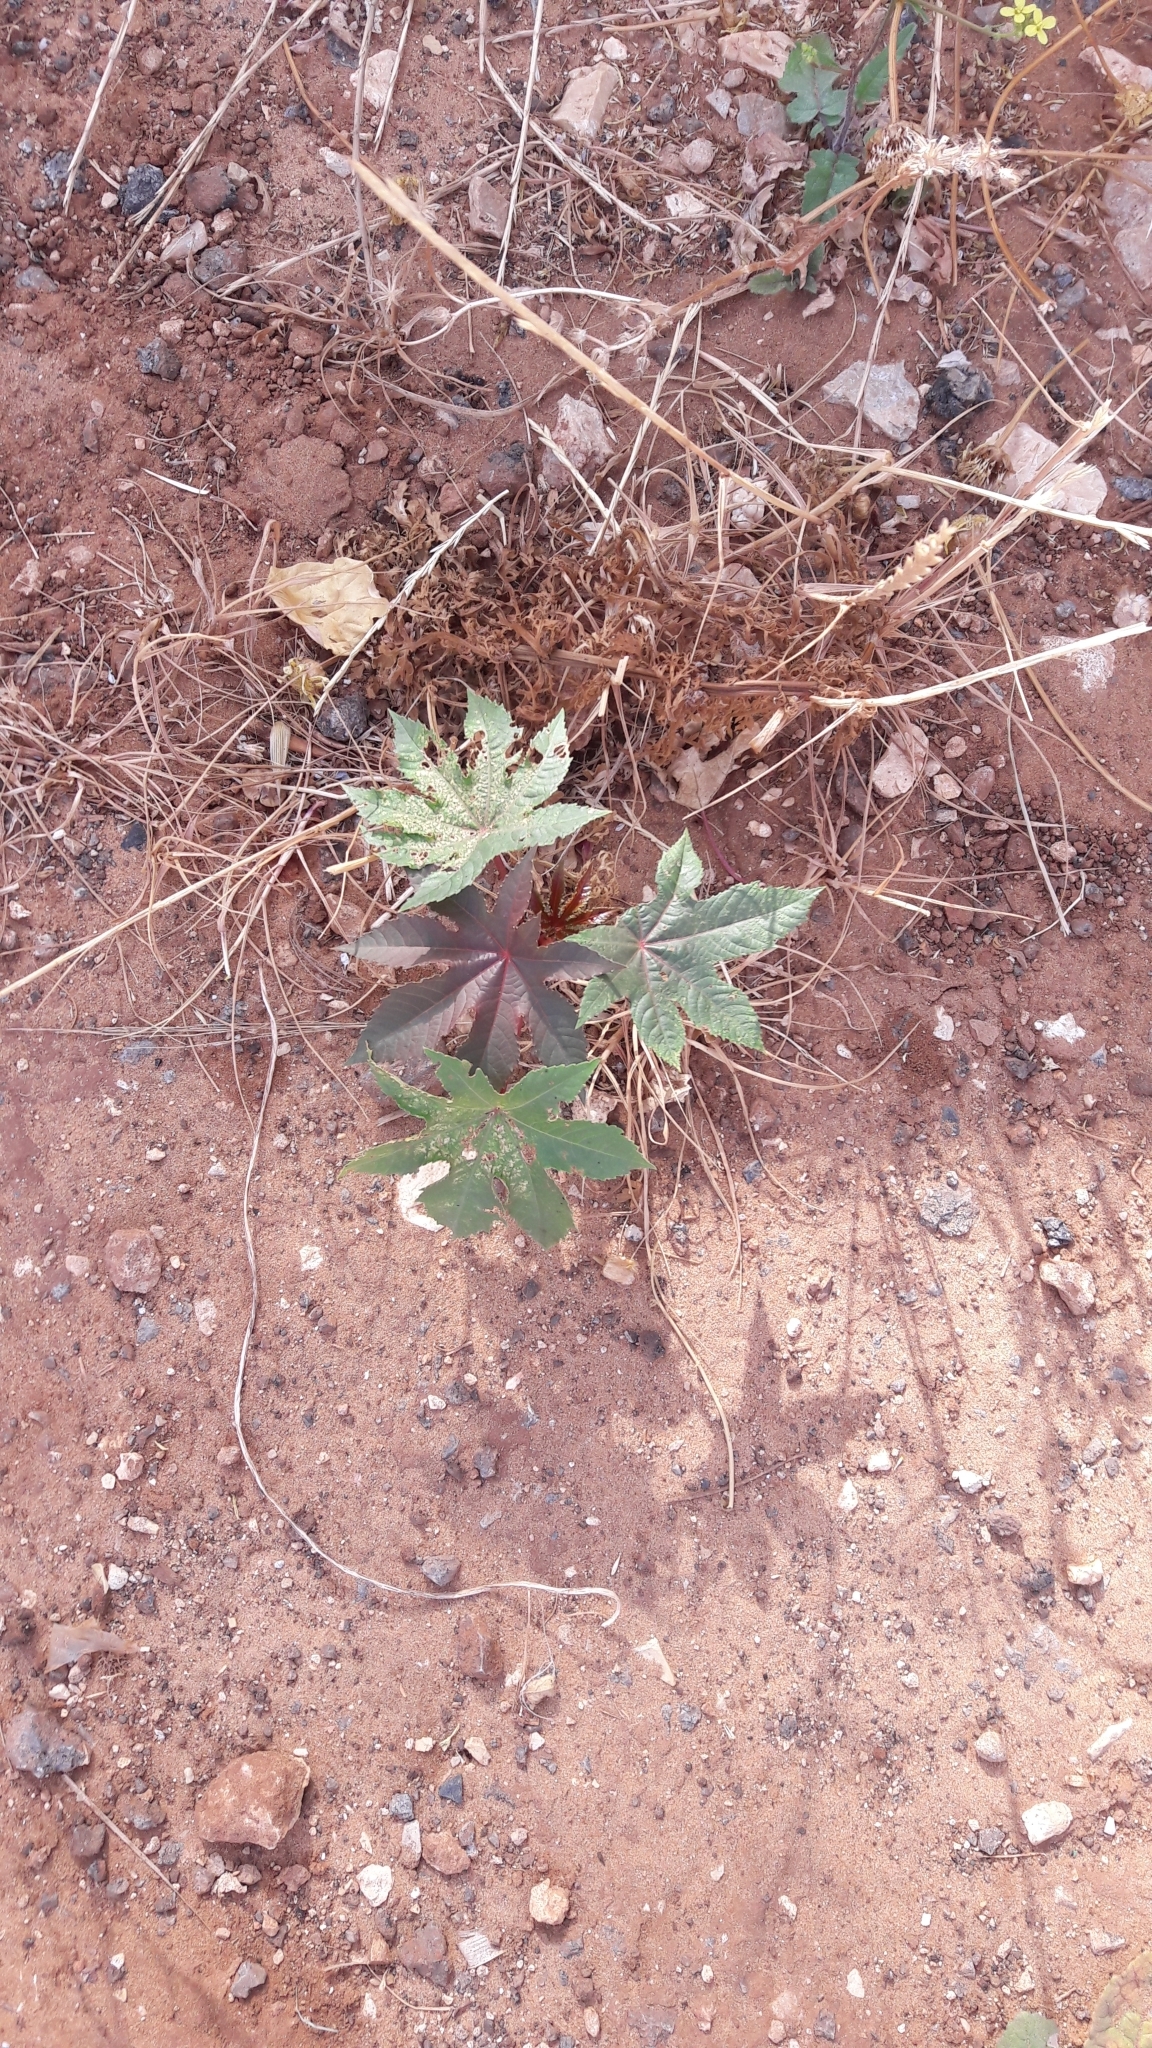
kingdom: Plantae
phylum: Tracheophyta
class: Magnoliopsida
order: Malpighiales
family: Euphorbiaceae
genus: Ricinus
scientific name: Ricinus communis
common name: Castor-oil-plant
